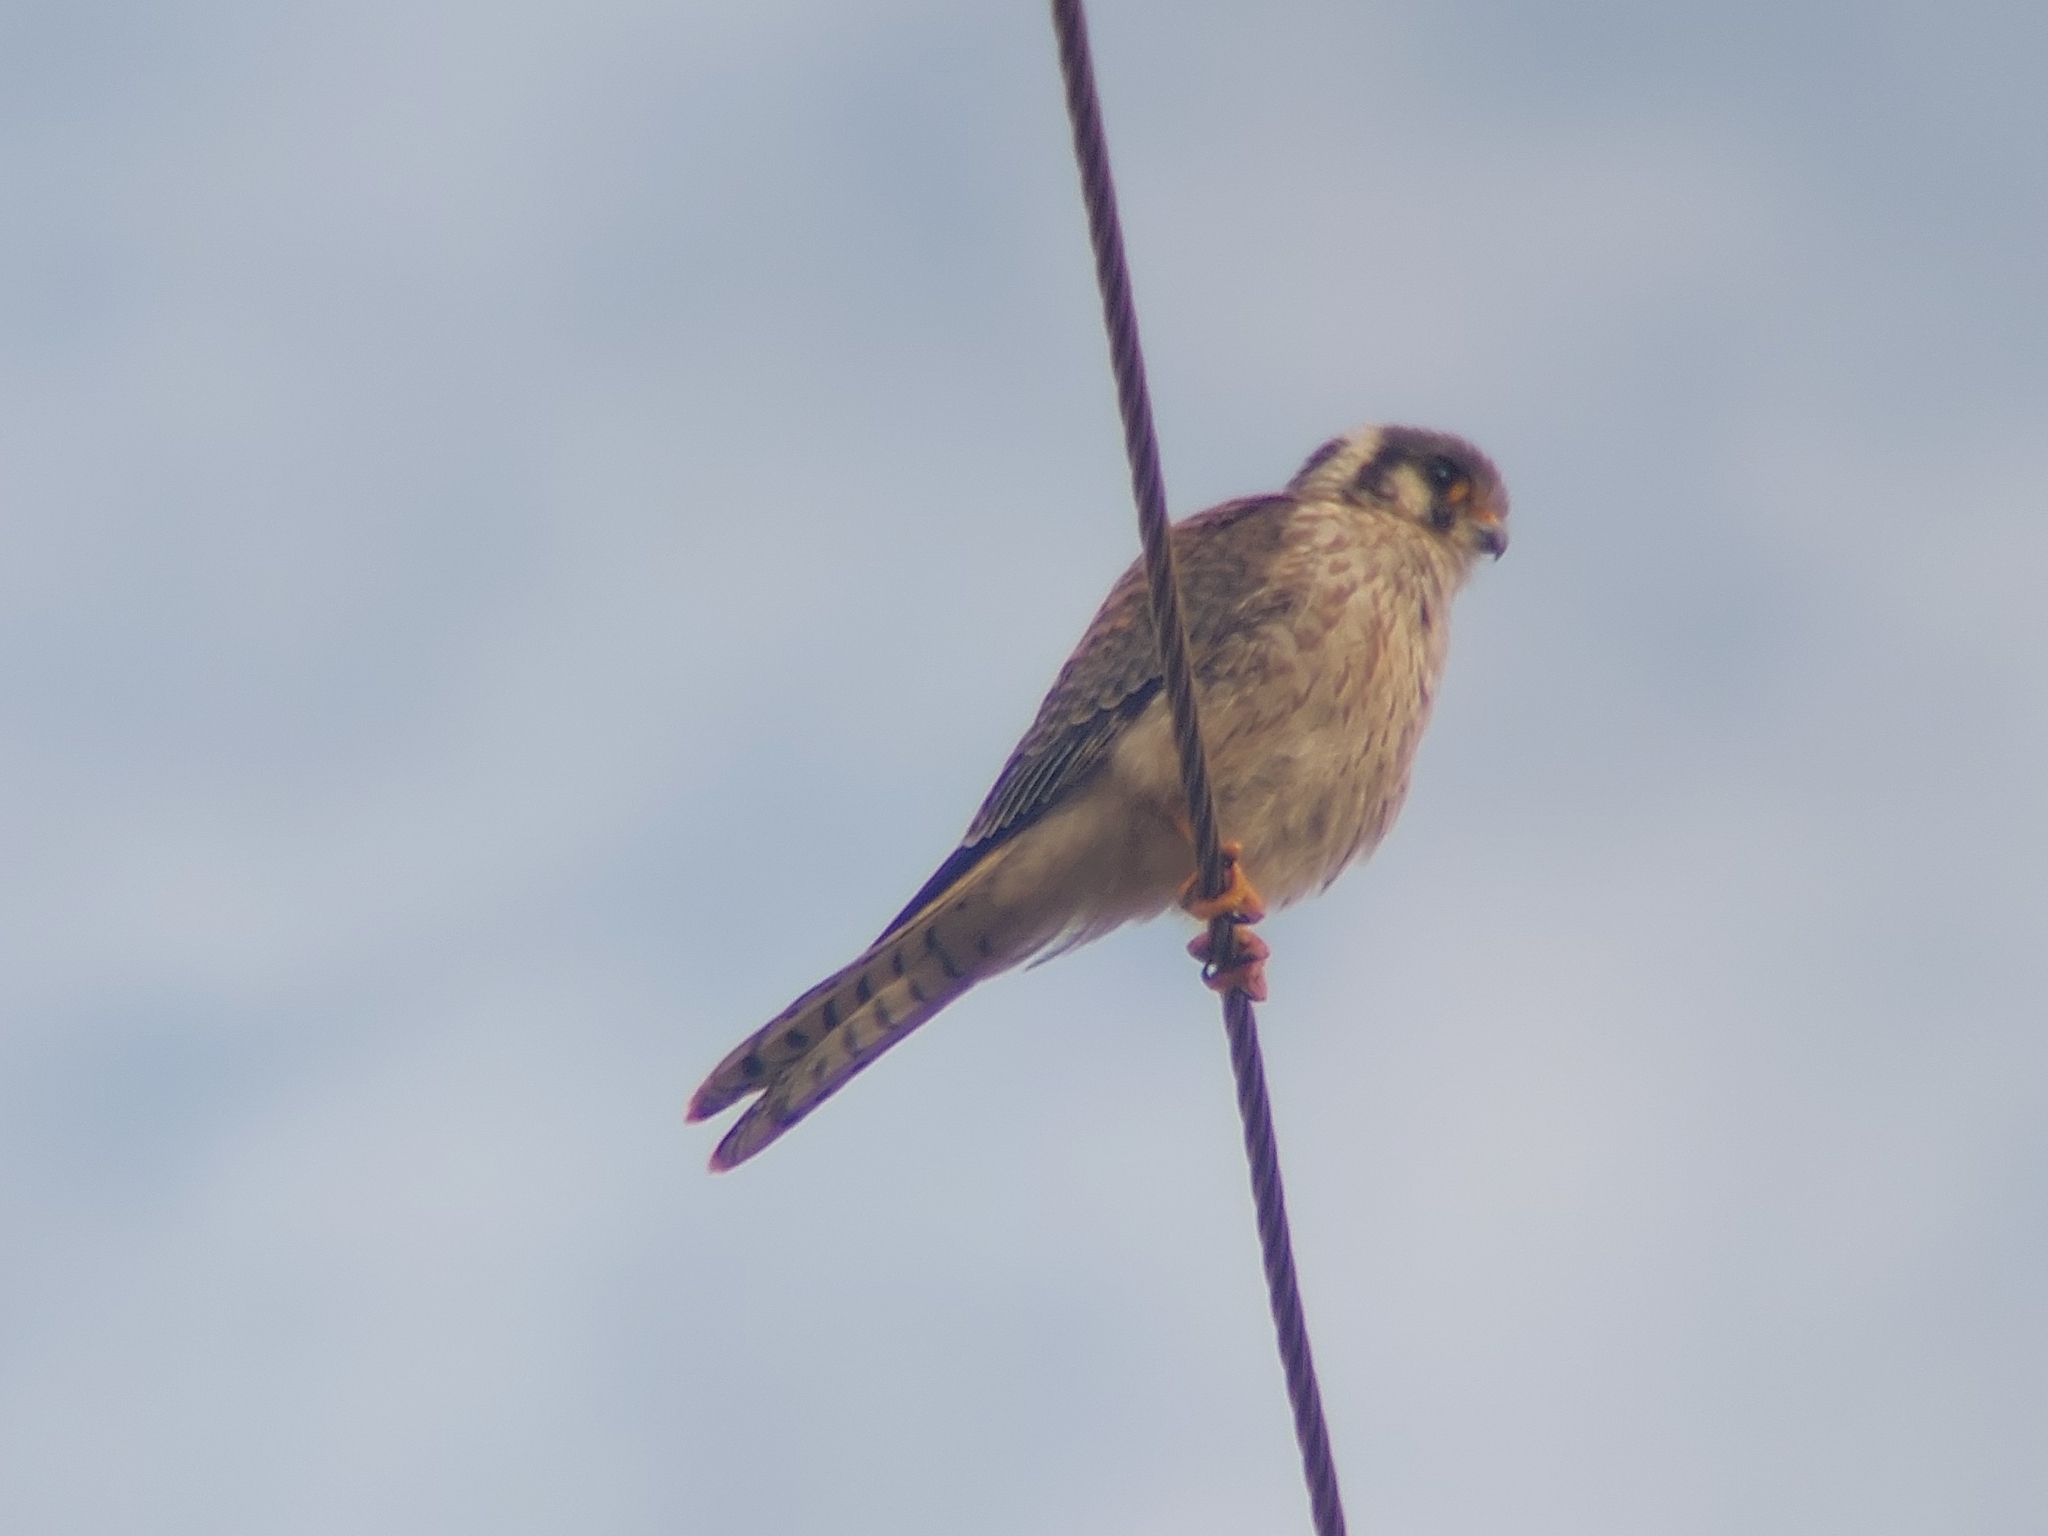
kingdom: Animalia
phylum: Chordata
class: Aves
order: Falconiformes
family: Falconidae
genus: Falco
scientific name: Falco sparverius
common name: American kestrel
